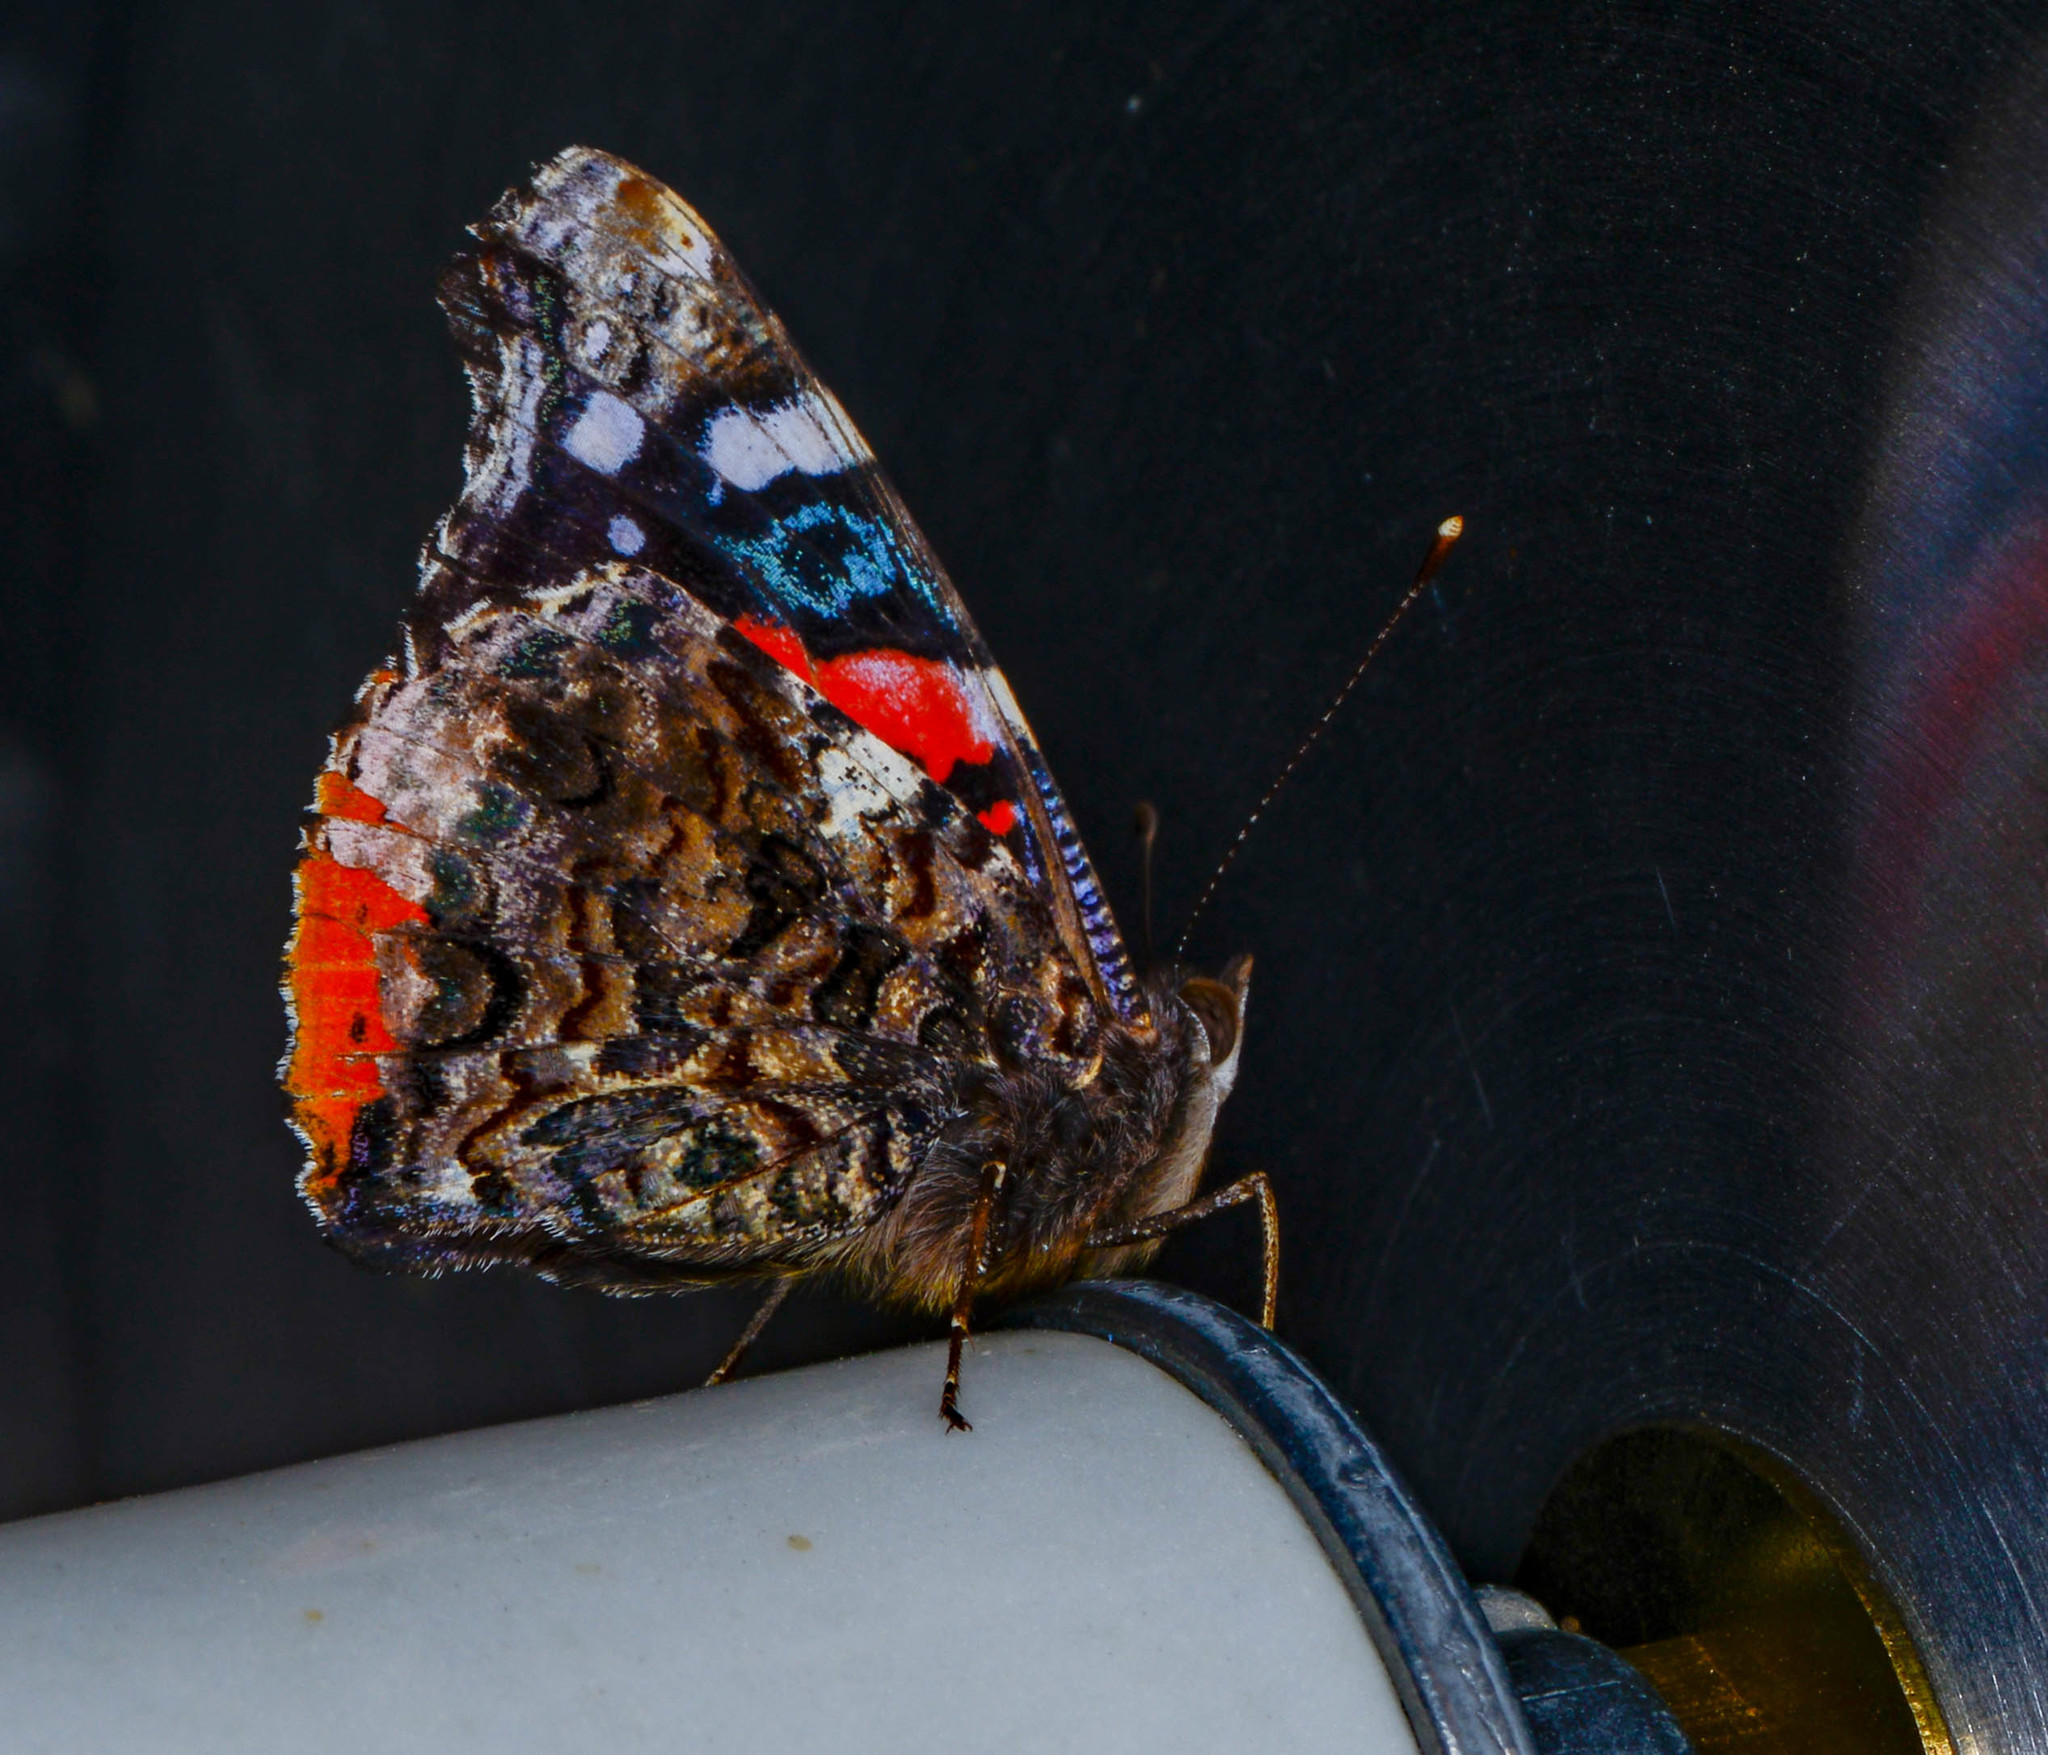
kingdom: Animalia
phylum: Arthropoda
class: Insecta
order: Lepidoptera
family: Nymphalidae
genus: Vanessa
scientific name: Vanessa atalanta
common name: Red admiral
